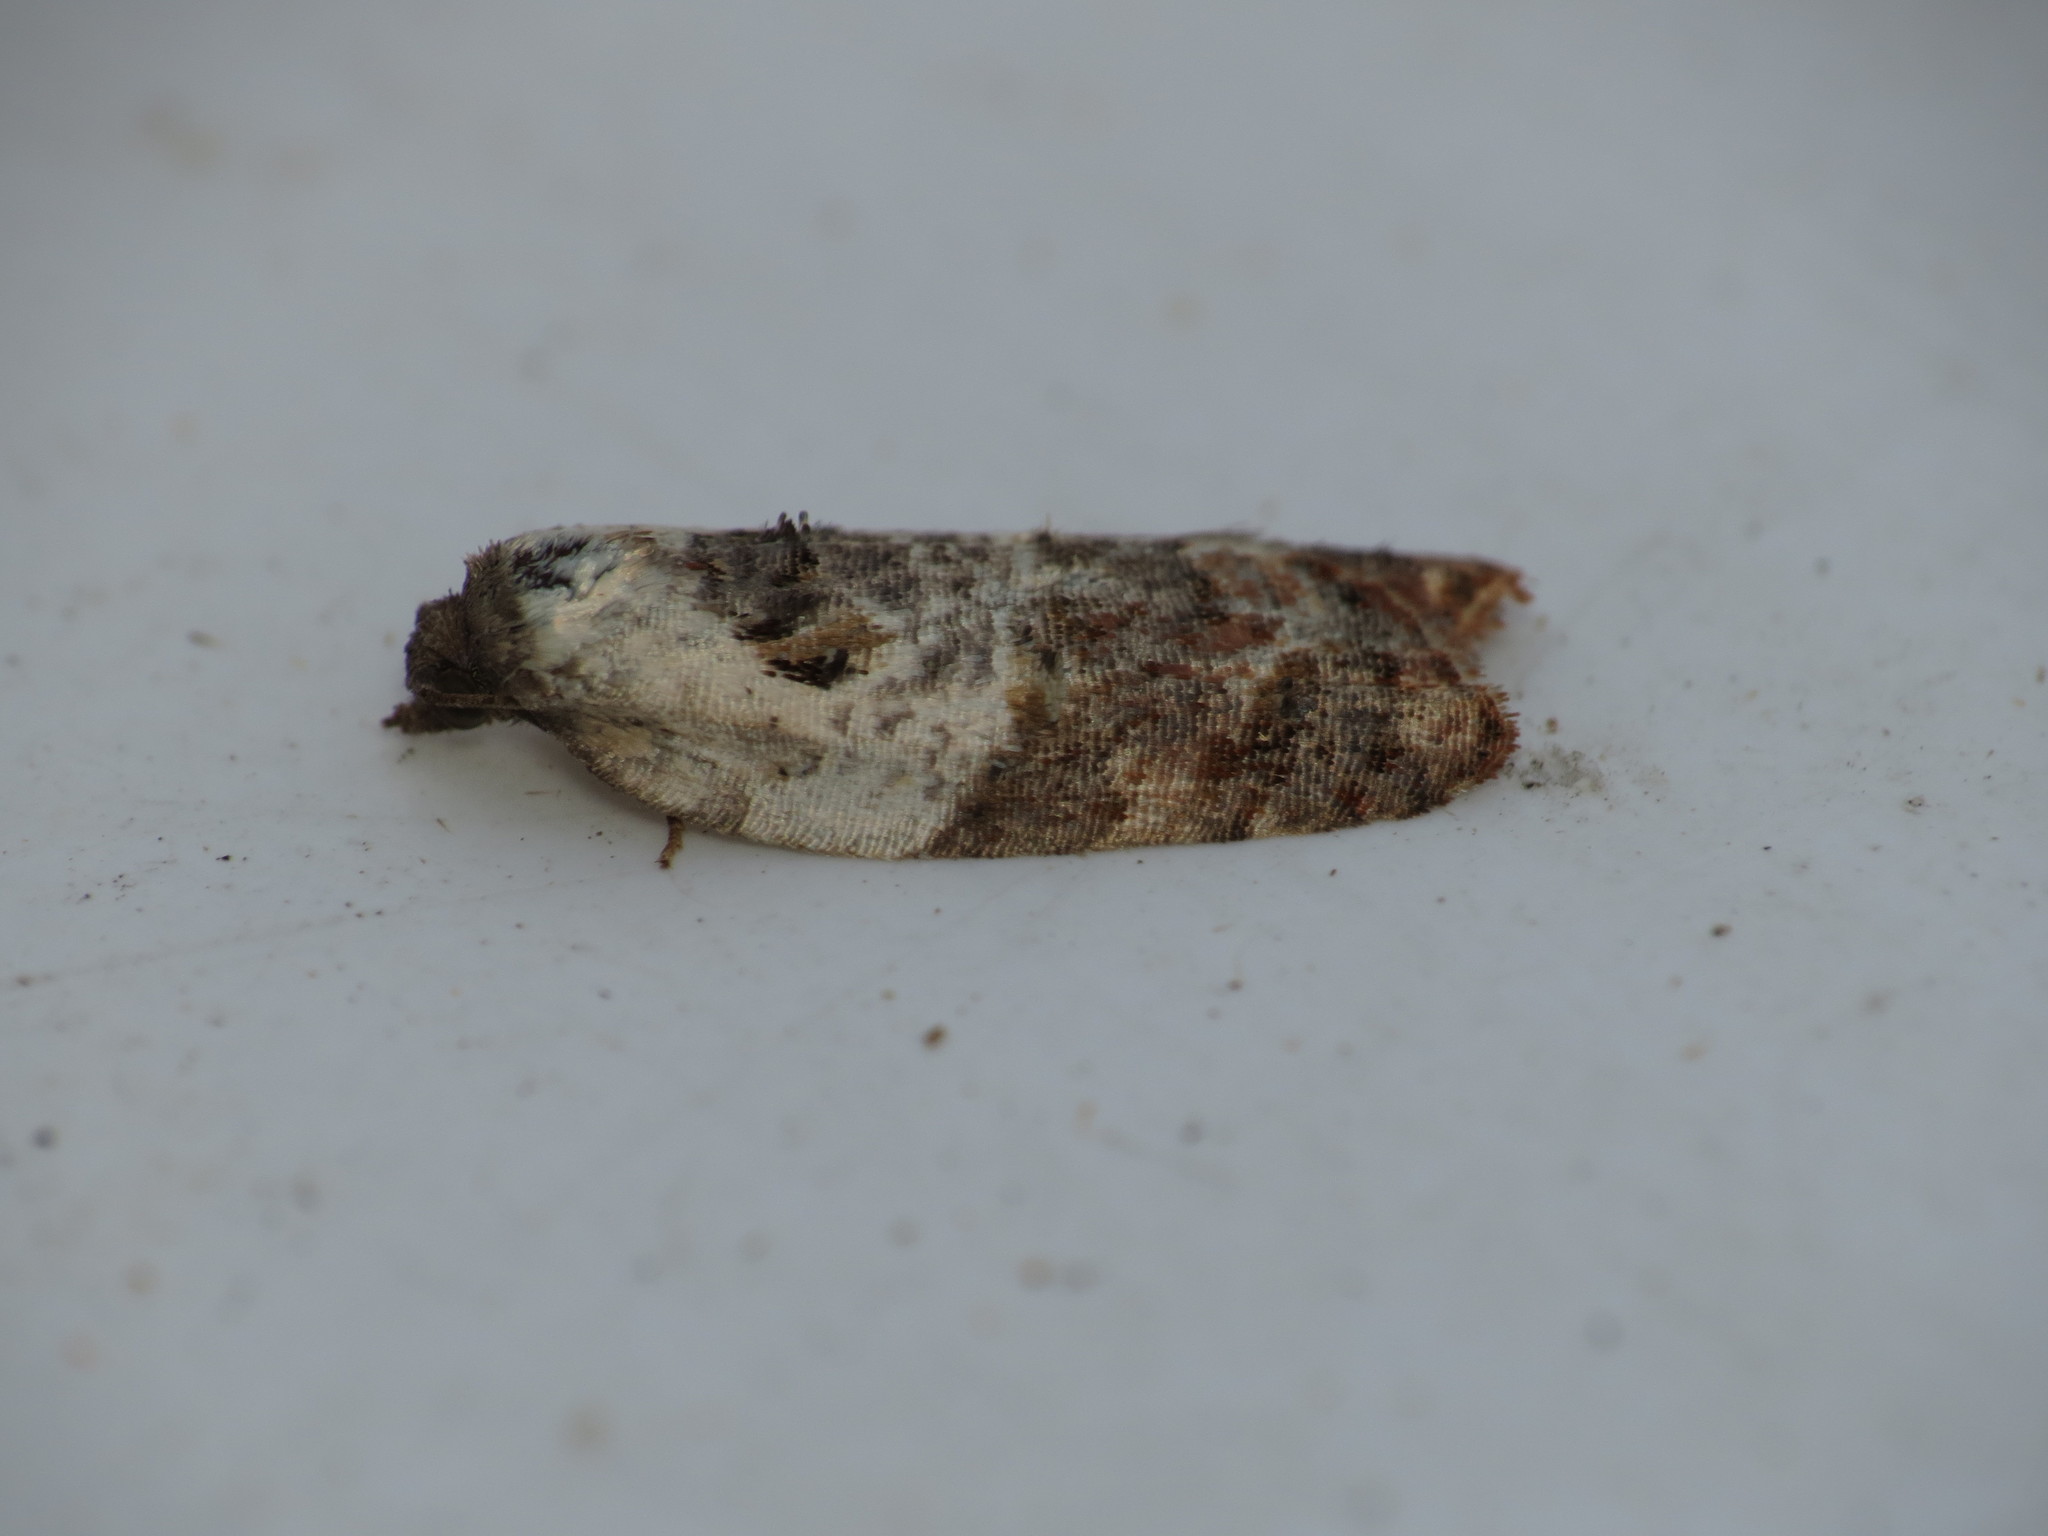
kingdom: Animalia
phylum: Arthropoda
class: Insecta
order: Lepidoptera
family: Tortricidae
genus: Acleris
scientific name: Acleris variegana
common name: Garden rose tortrix
